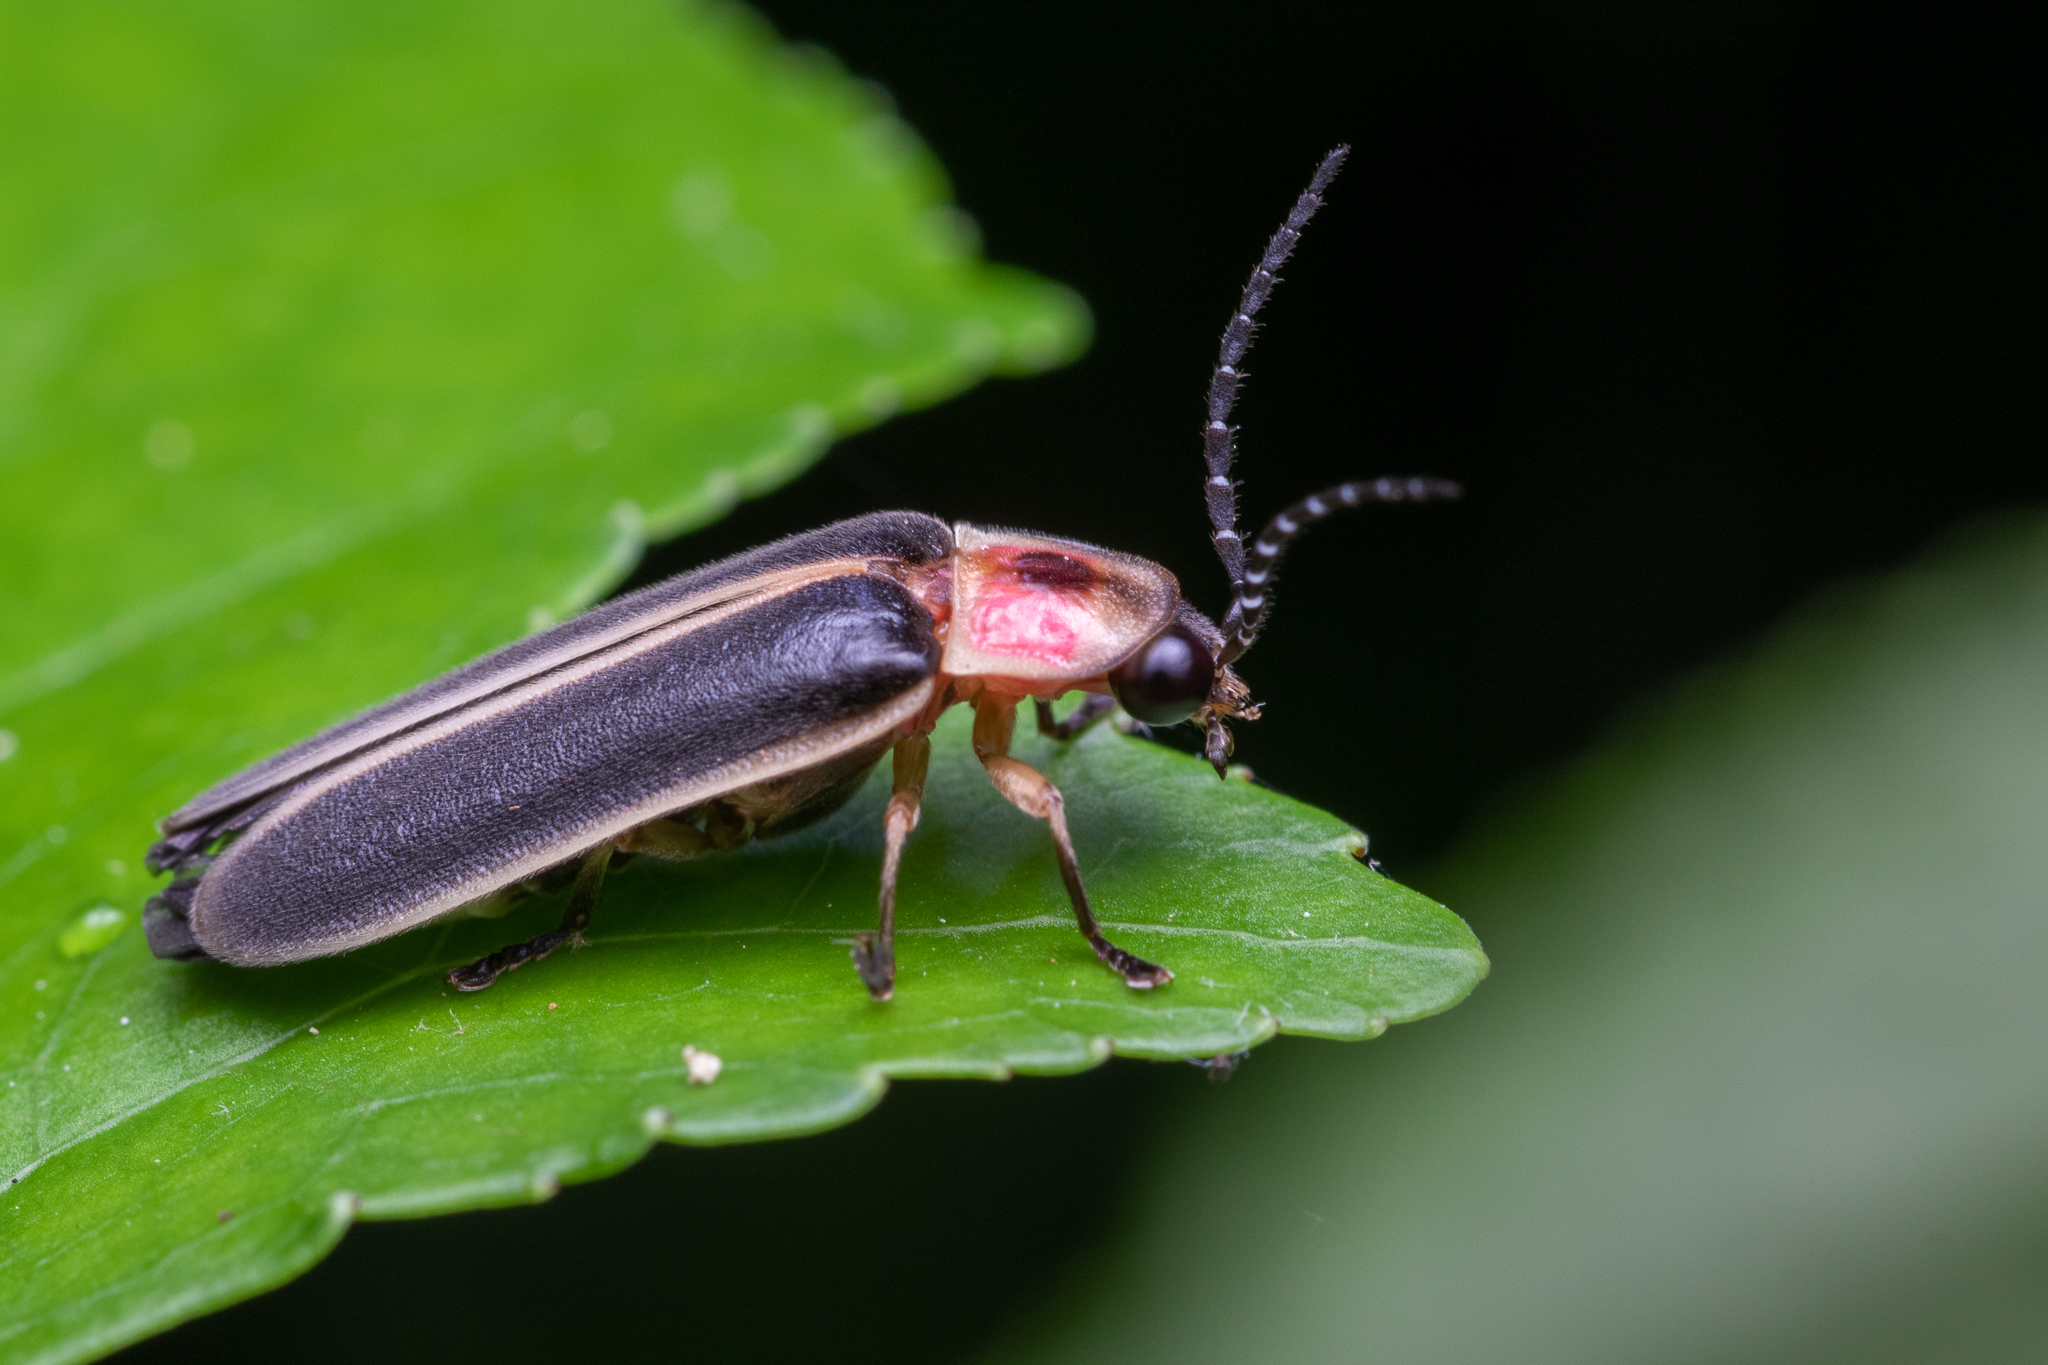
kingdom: Animalia
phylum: Arthropoda
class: Insecta
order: Coleoptera
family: Lampyridae
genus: Photinus
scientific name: Photinus pyralis
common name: Big dipper firefly
